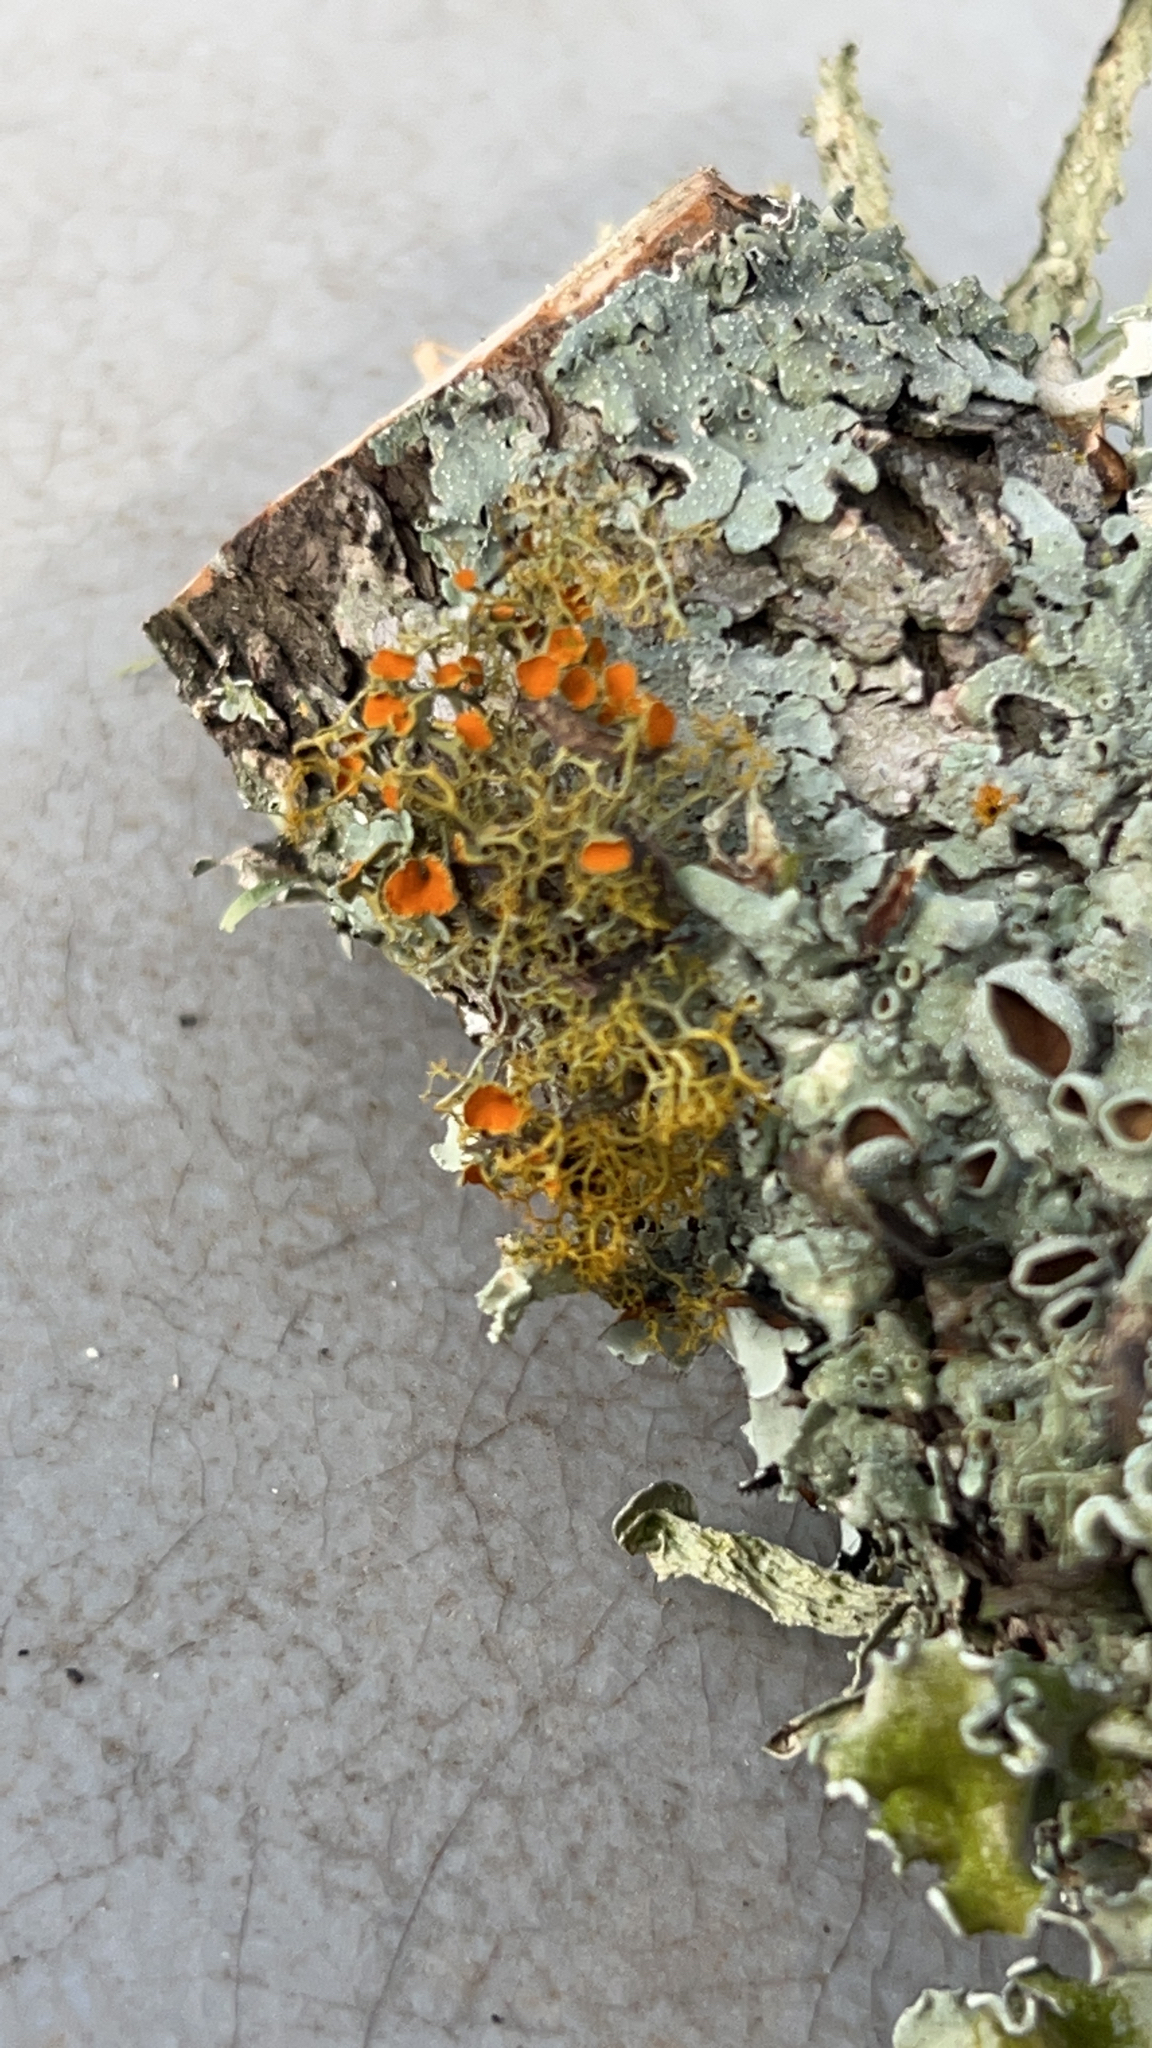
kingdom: Fungi
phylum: Ascomycota
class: Lecanoromycetes
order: Teloschistales
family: Teloschistaceae
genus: Teloschistes
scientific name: Teloschistes exilis
